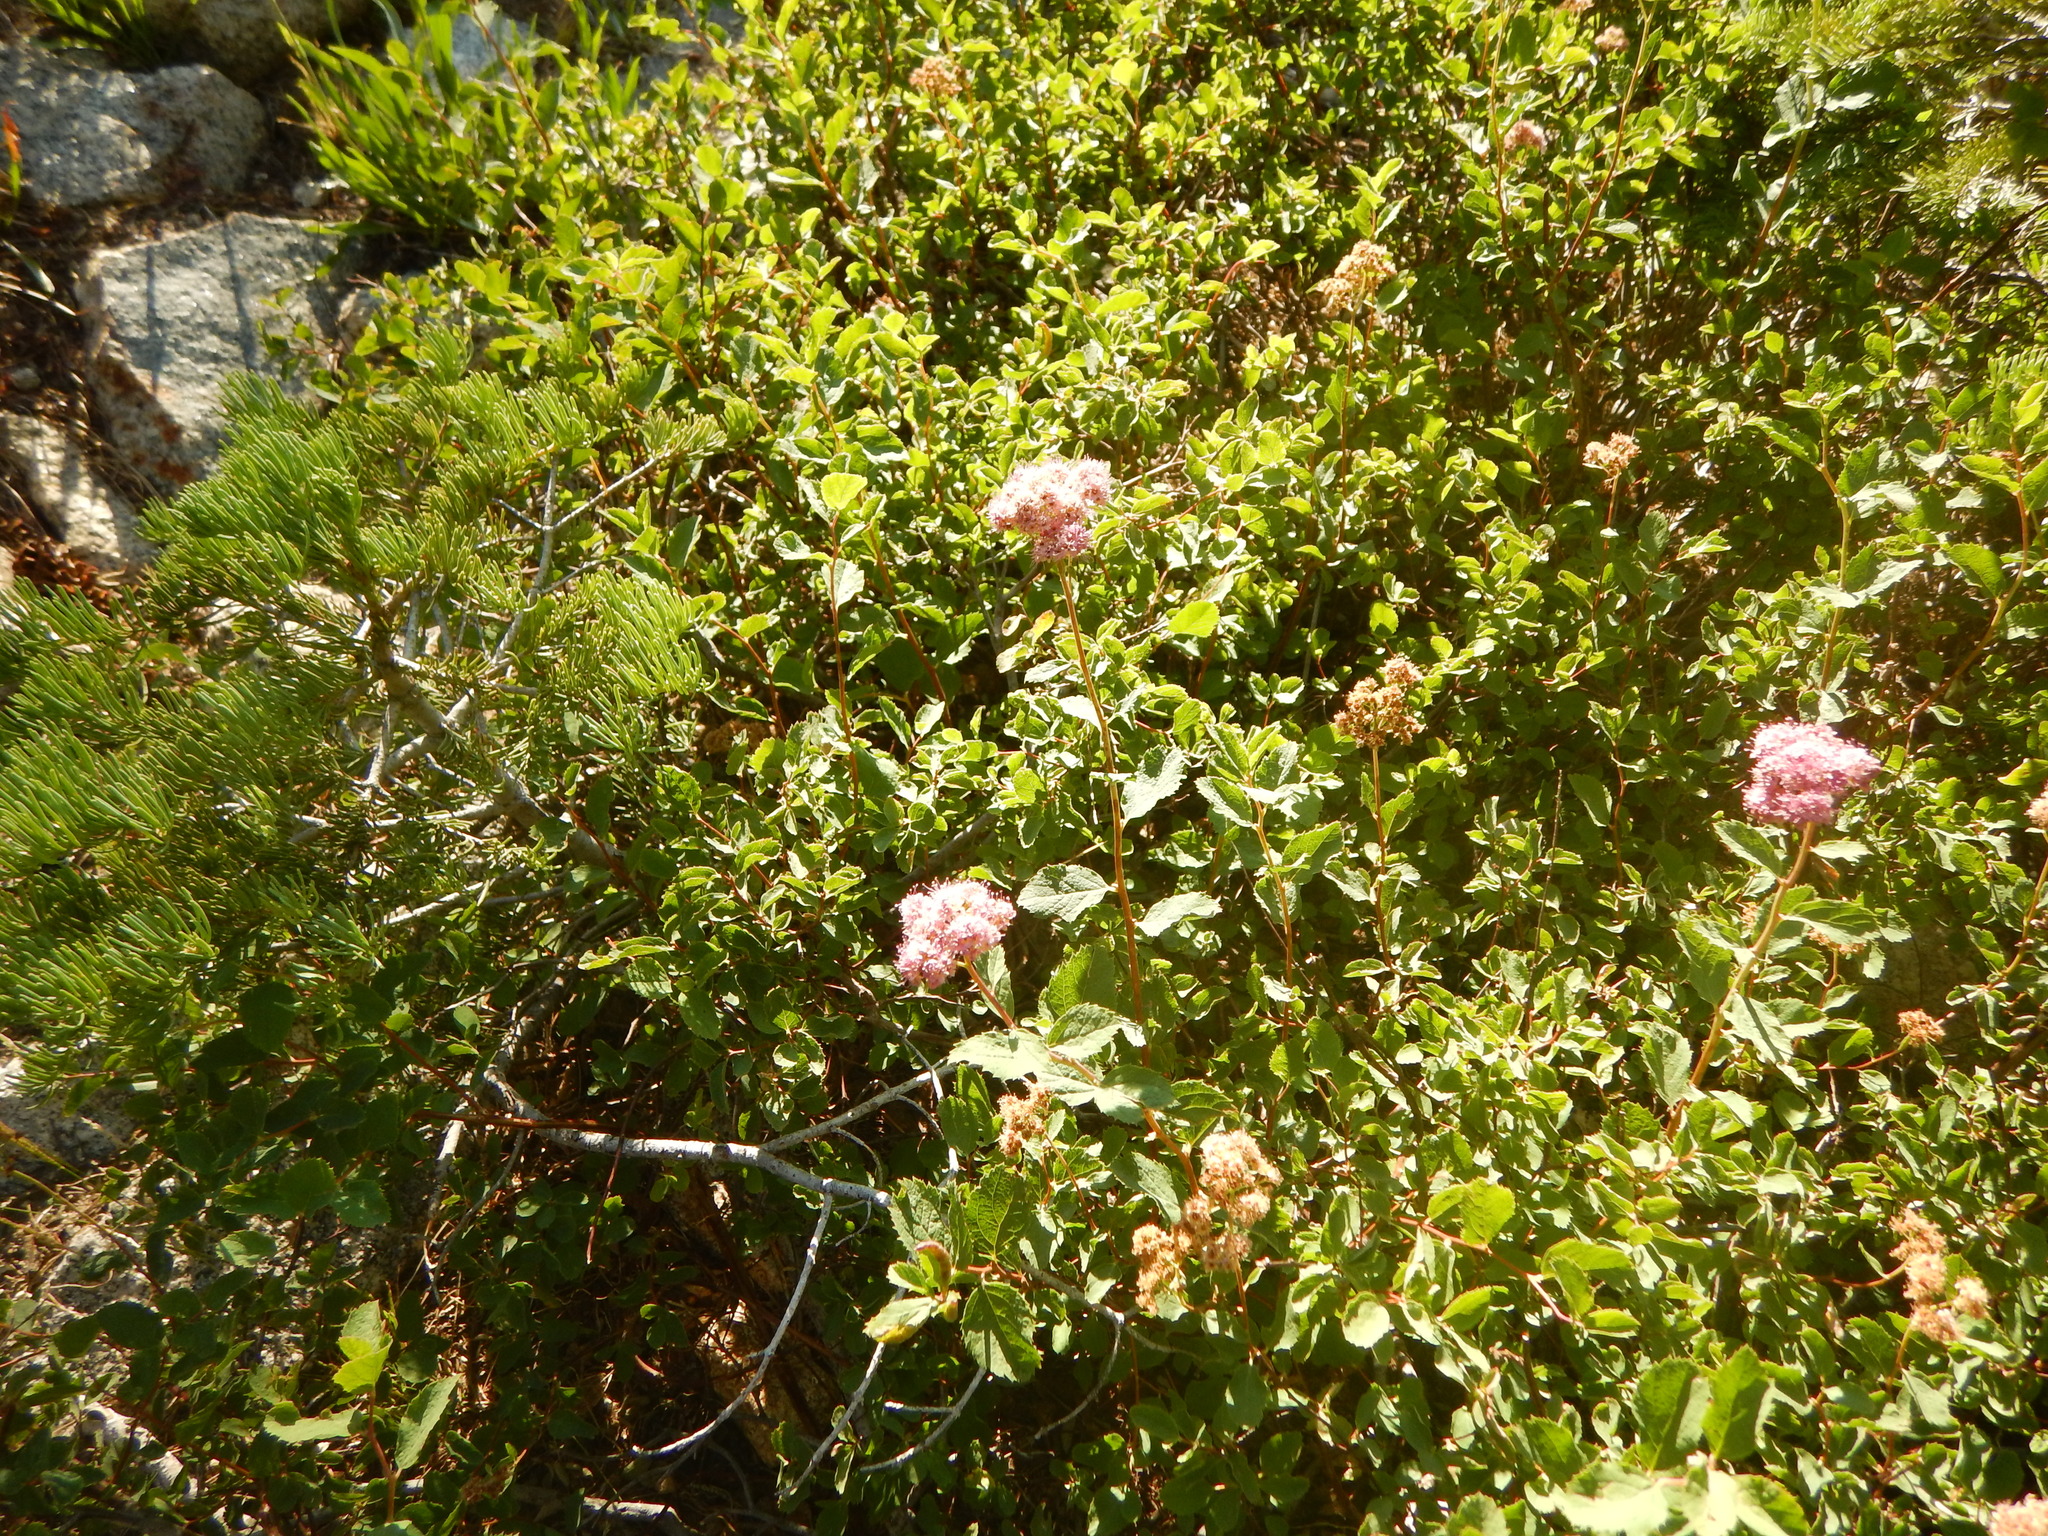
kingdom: Plantae
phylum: Tracheophyta
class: Magnoliopsida
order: Rosales
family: Rosaceae
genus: Spiraea
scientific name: Spiraea splendens
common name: Subalpine meadowsweet
